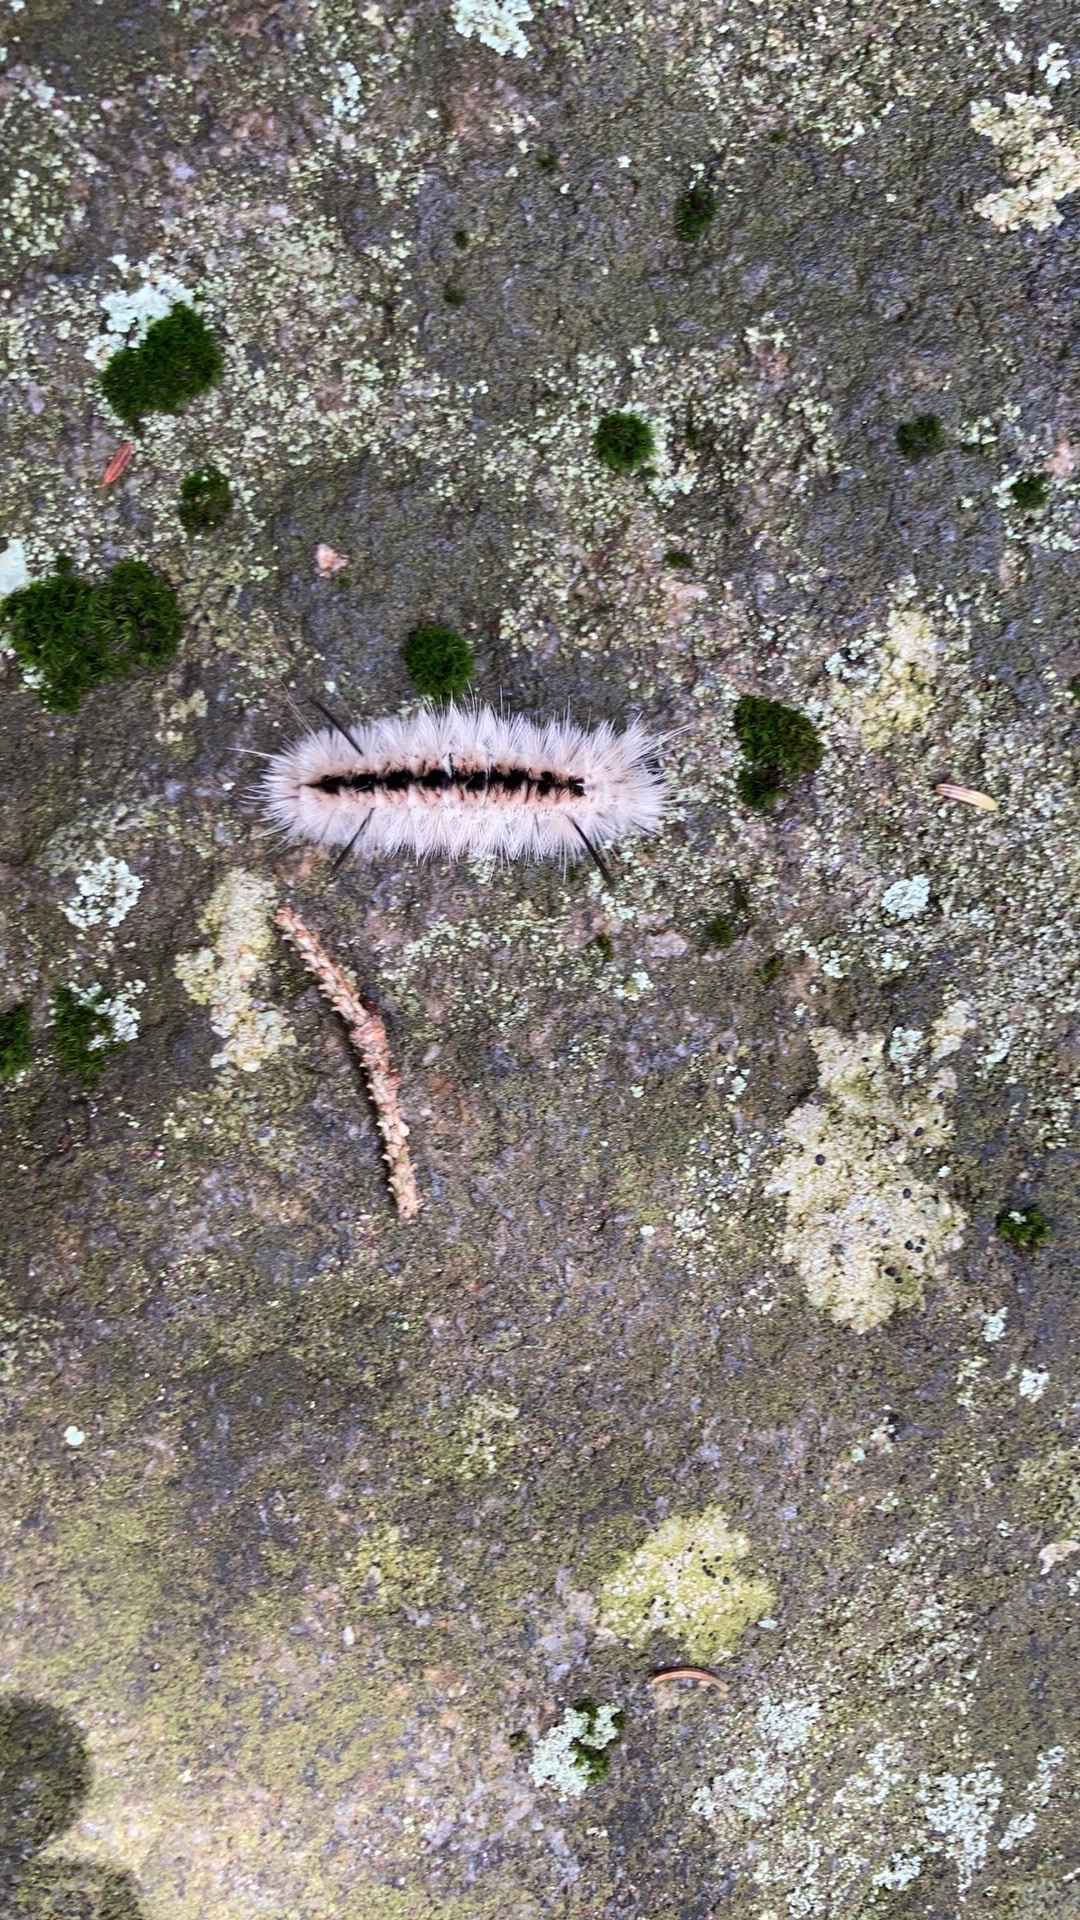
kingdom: Animalia
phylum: Arthropoda
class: Insecta
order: Lepidoptera
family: Erebidae
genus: Lophocampa
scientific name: Lophocampa caryae
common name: Hickory tussock moth
